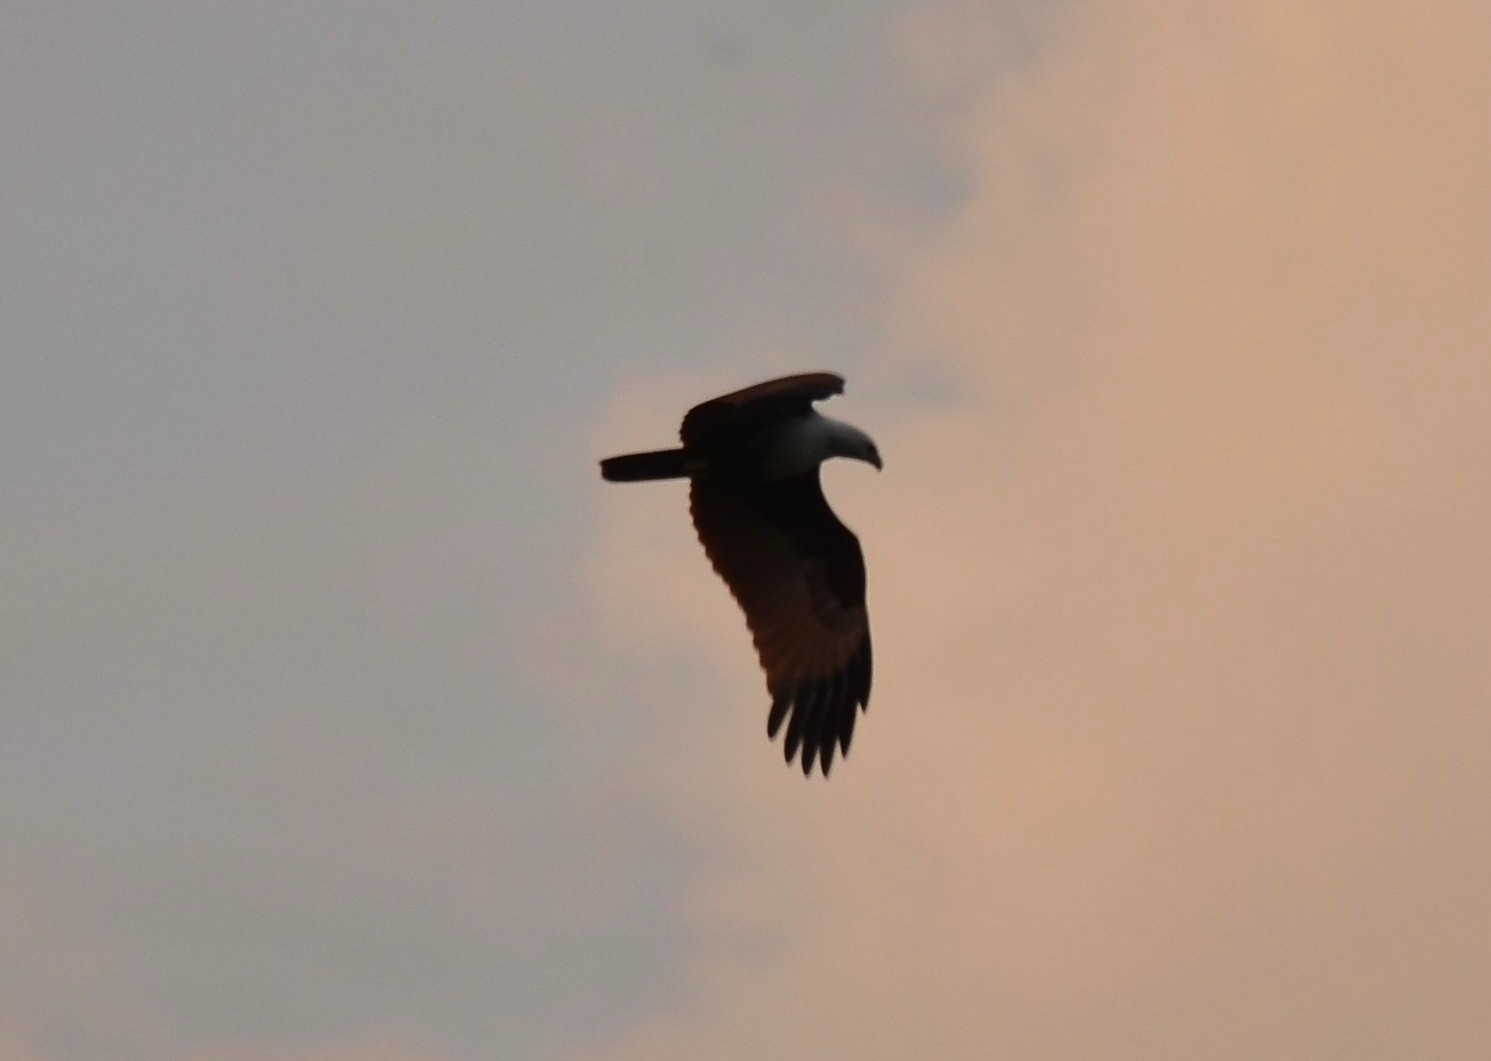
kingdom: Animalia
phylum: Chordata
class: Aves
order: Accipitriformes
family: Accipitridae
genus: Haliastur
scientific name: Haliastur indus
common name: Brahminy kite
